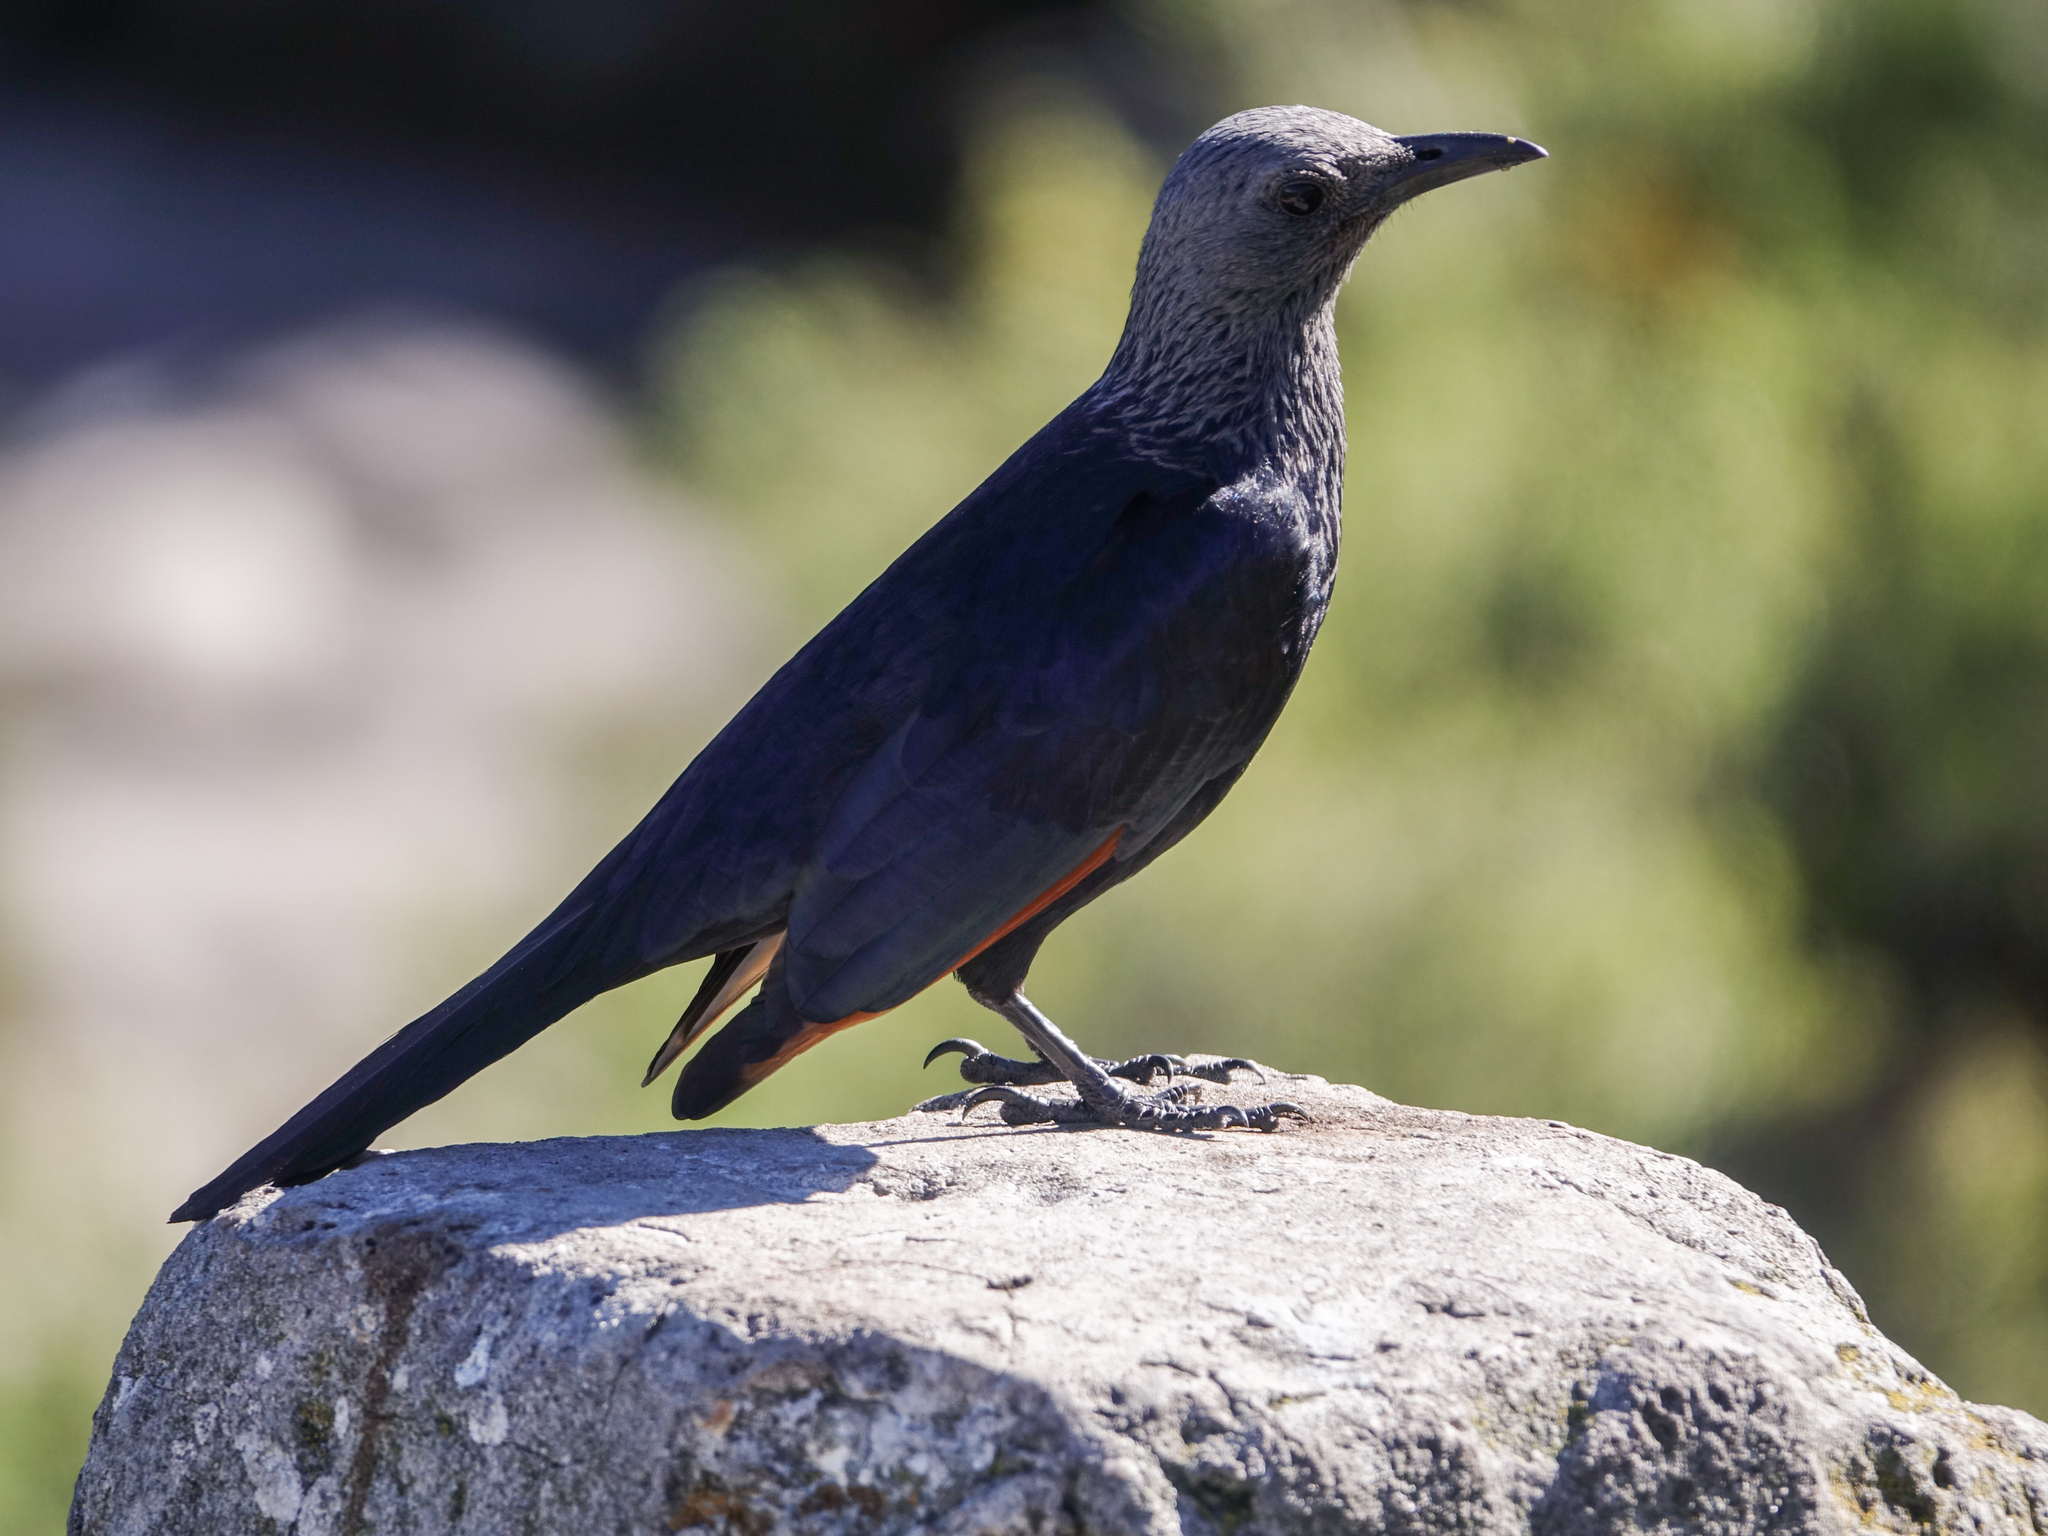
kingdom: Animalia
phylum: Chordata
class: Aves
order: Passeriformes
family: Sturnidae
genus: Onychognathus
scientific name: Onychognathus morio
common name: Red-winged starling
